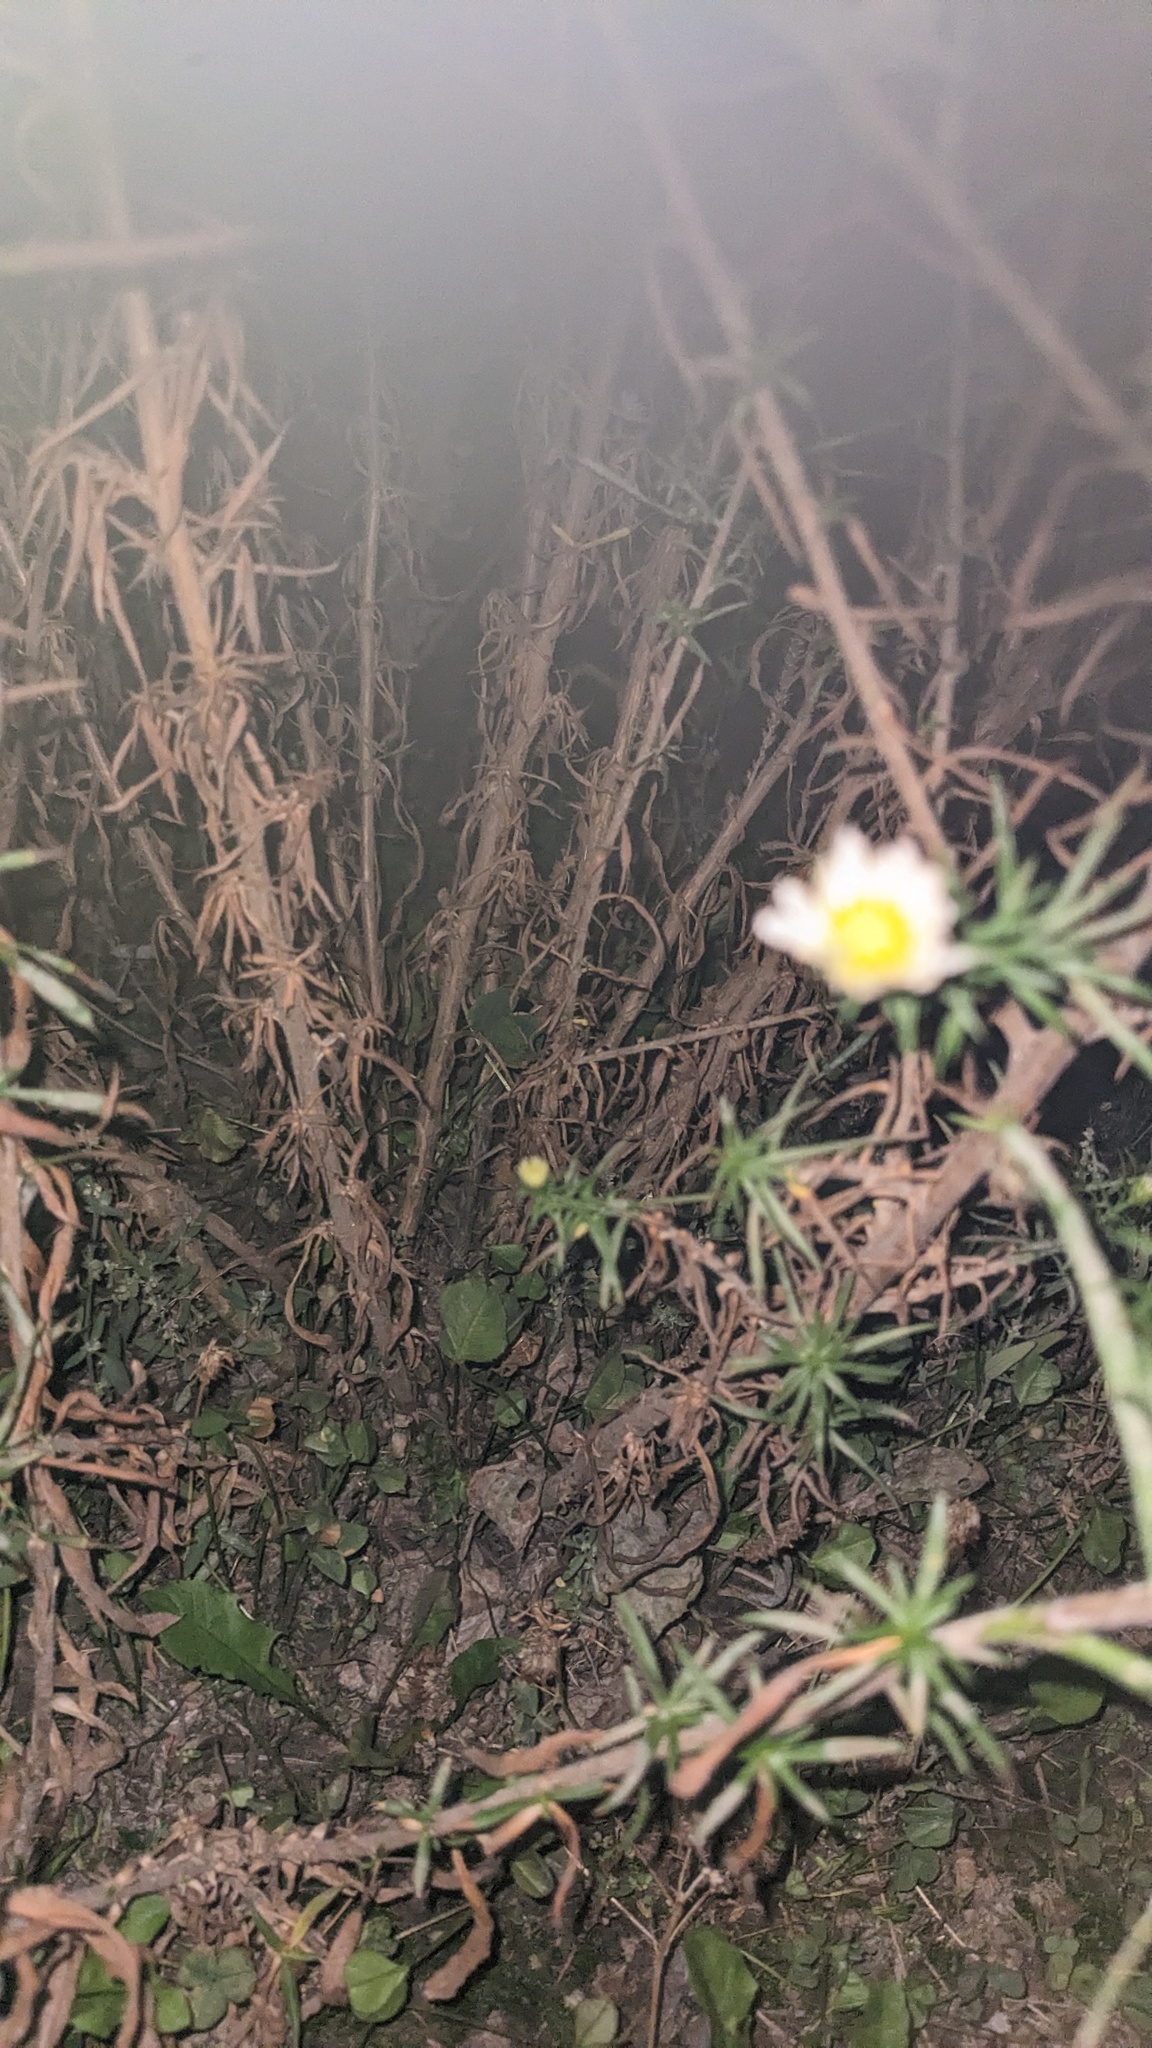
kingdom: Plantae
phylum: Tracheophyta
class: Magnoliopsida
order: Asterales
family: Asteraceae
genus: Symphyotrichum
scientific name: Symphyotrichum pilosum
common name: Awl aster
